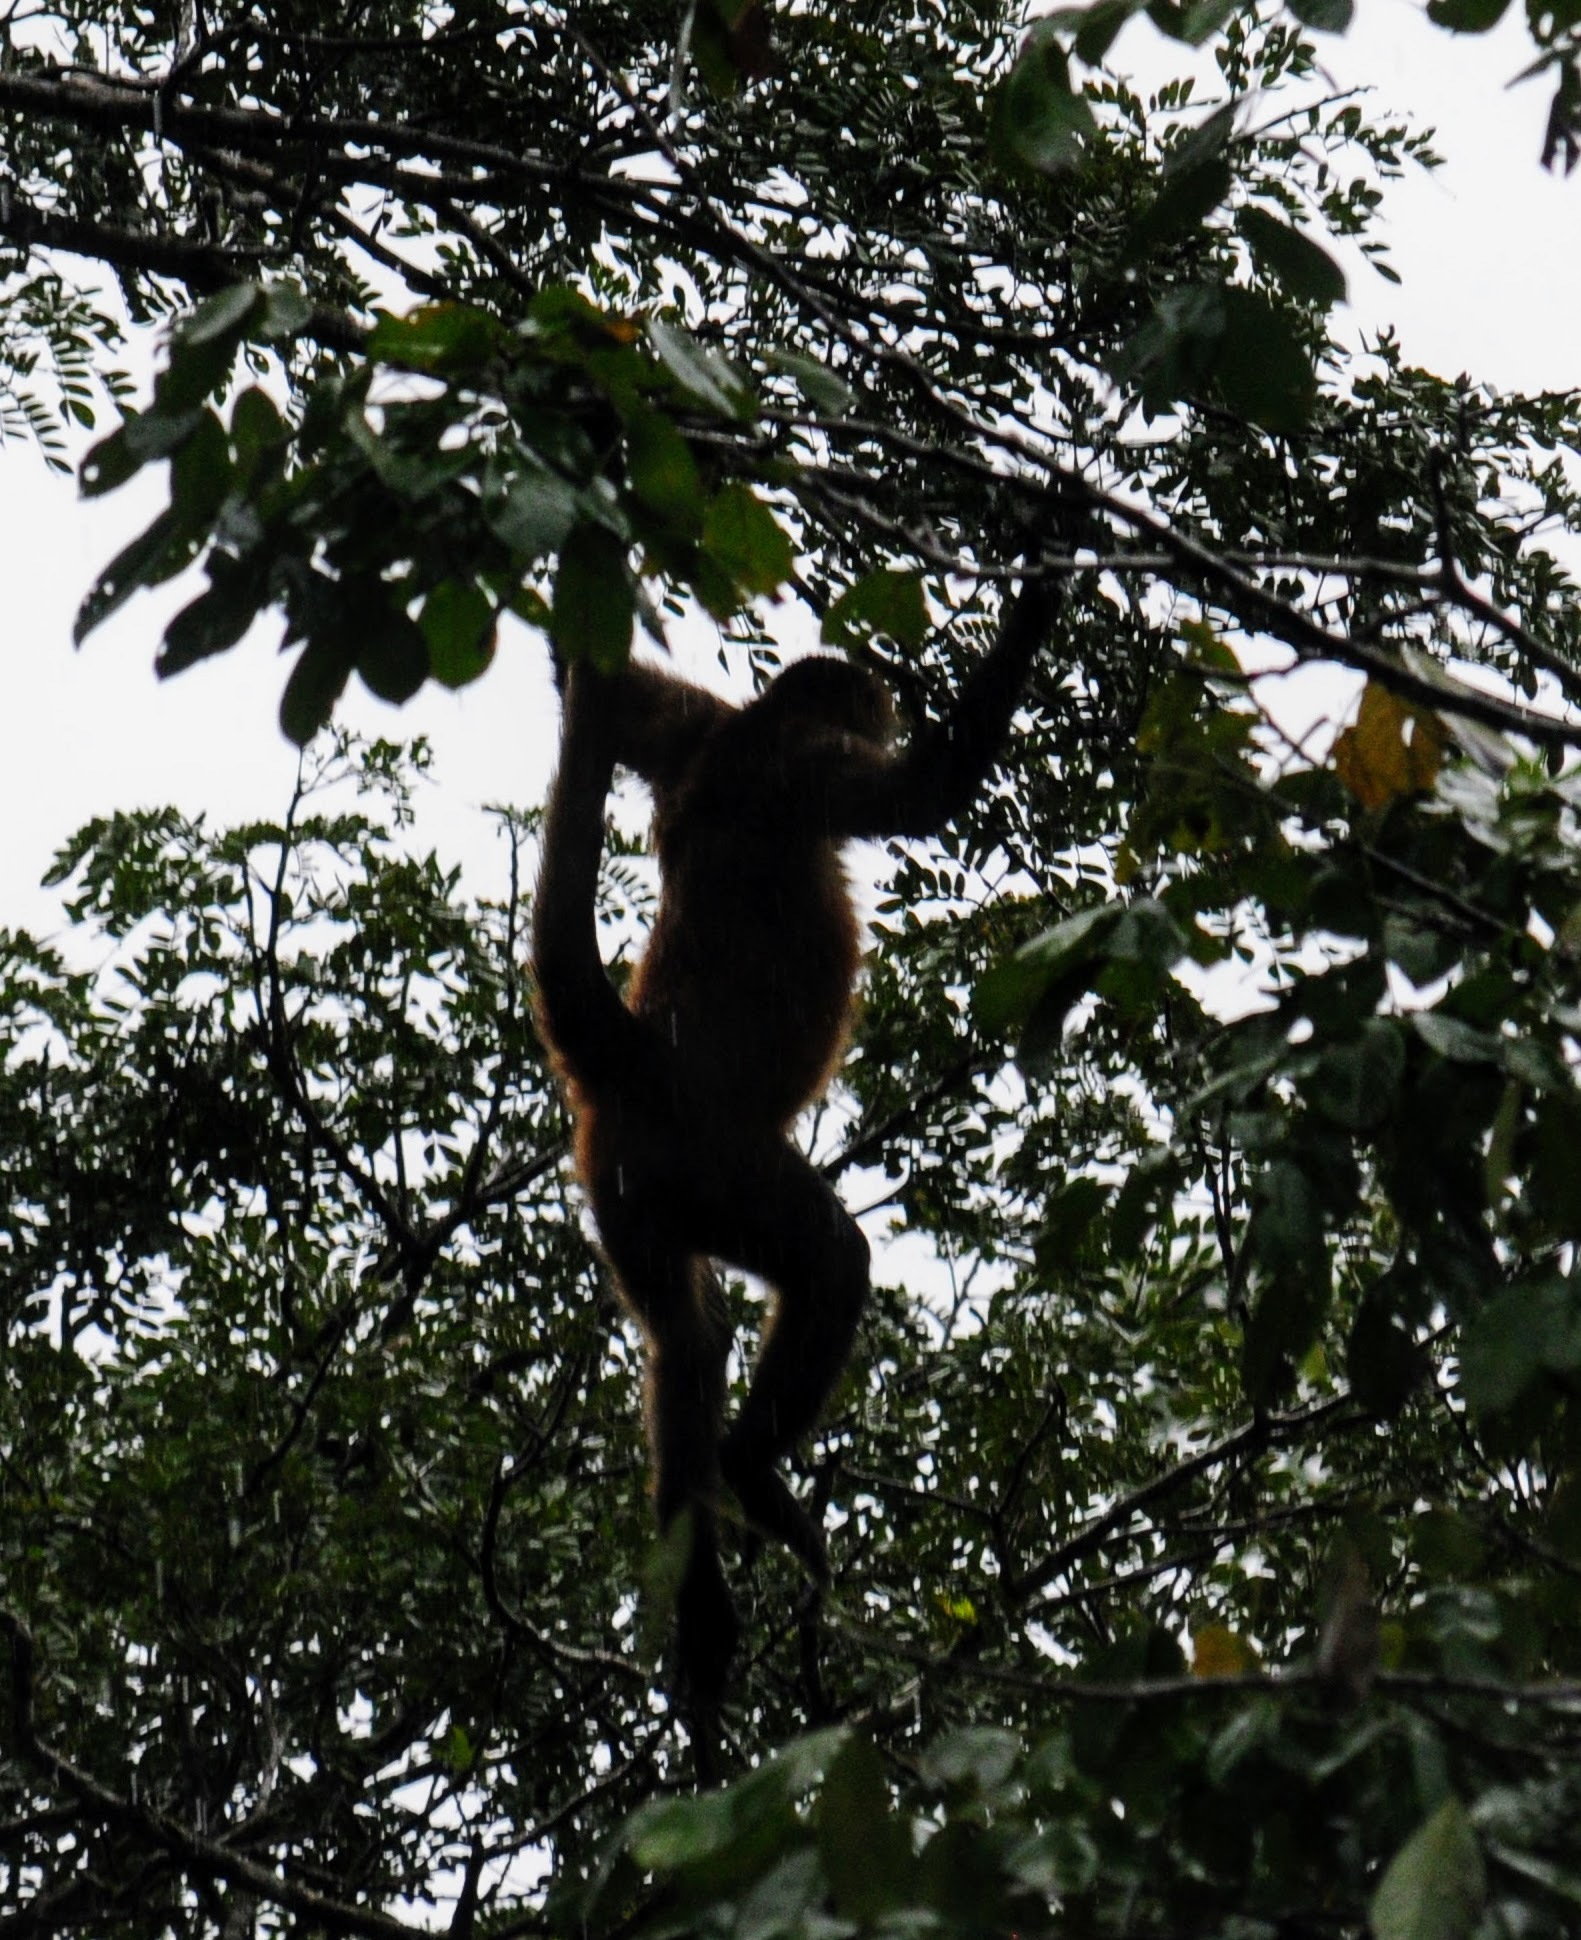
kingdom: Animalia
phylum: Chordata
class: Mammalia
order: Primates
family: Atelidae
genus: Ateles
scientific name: Ateles geoffroyi
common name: Black-handed spider monkey
